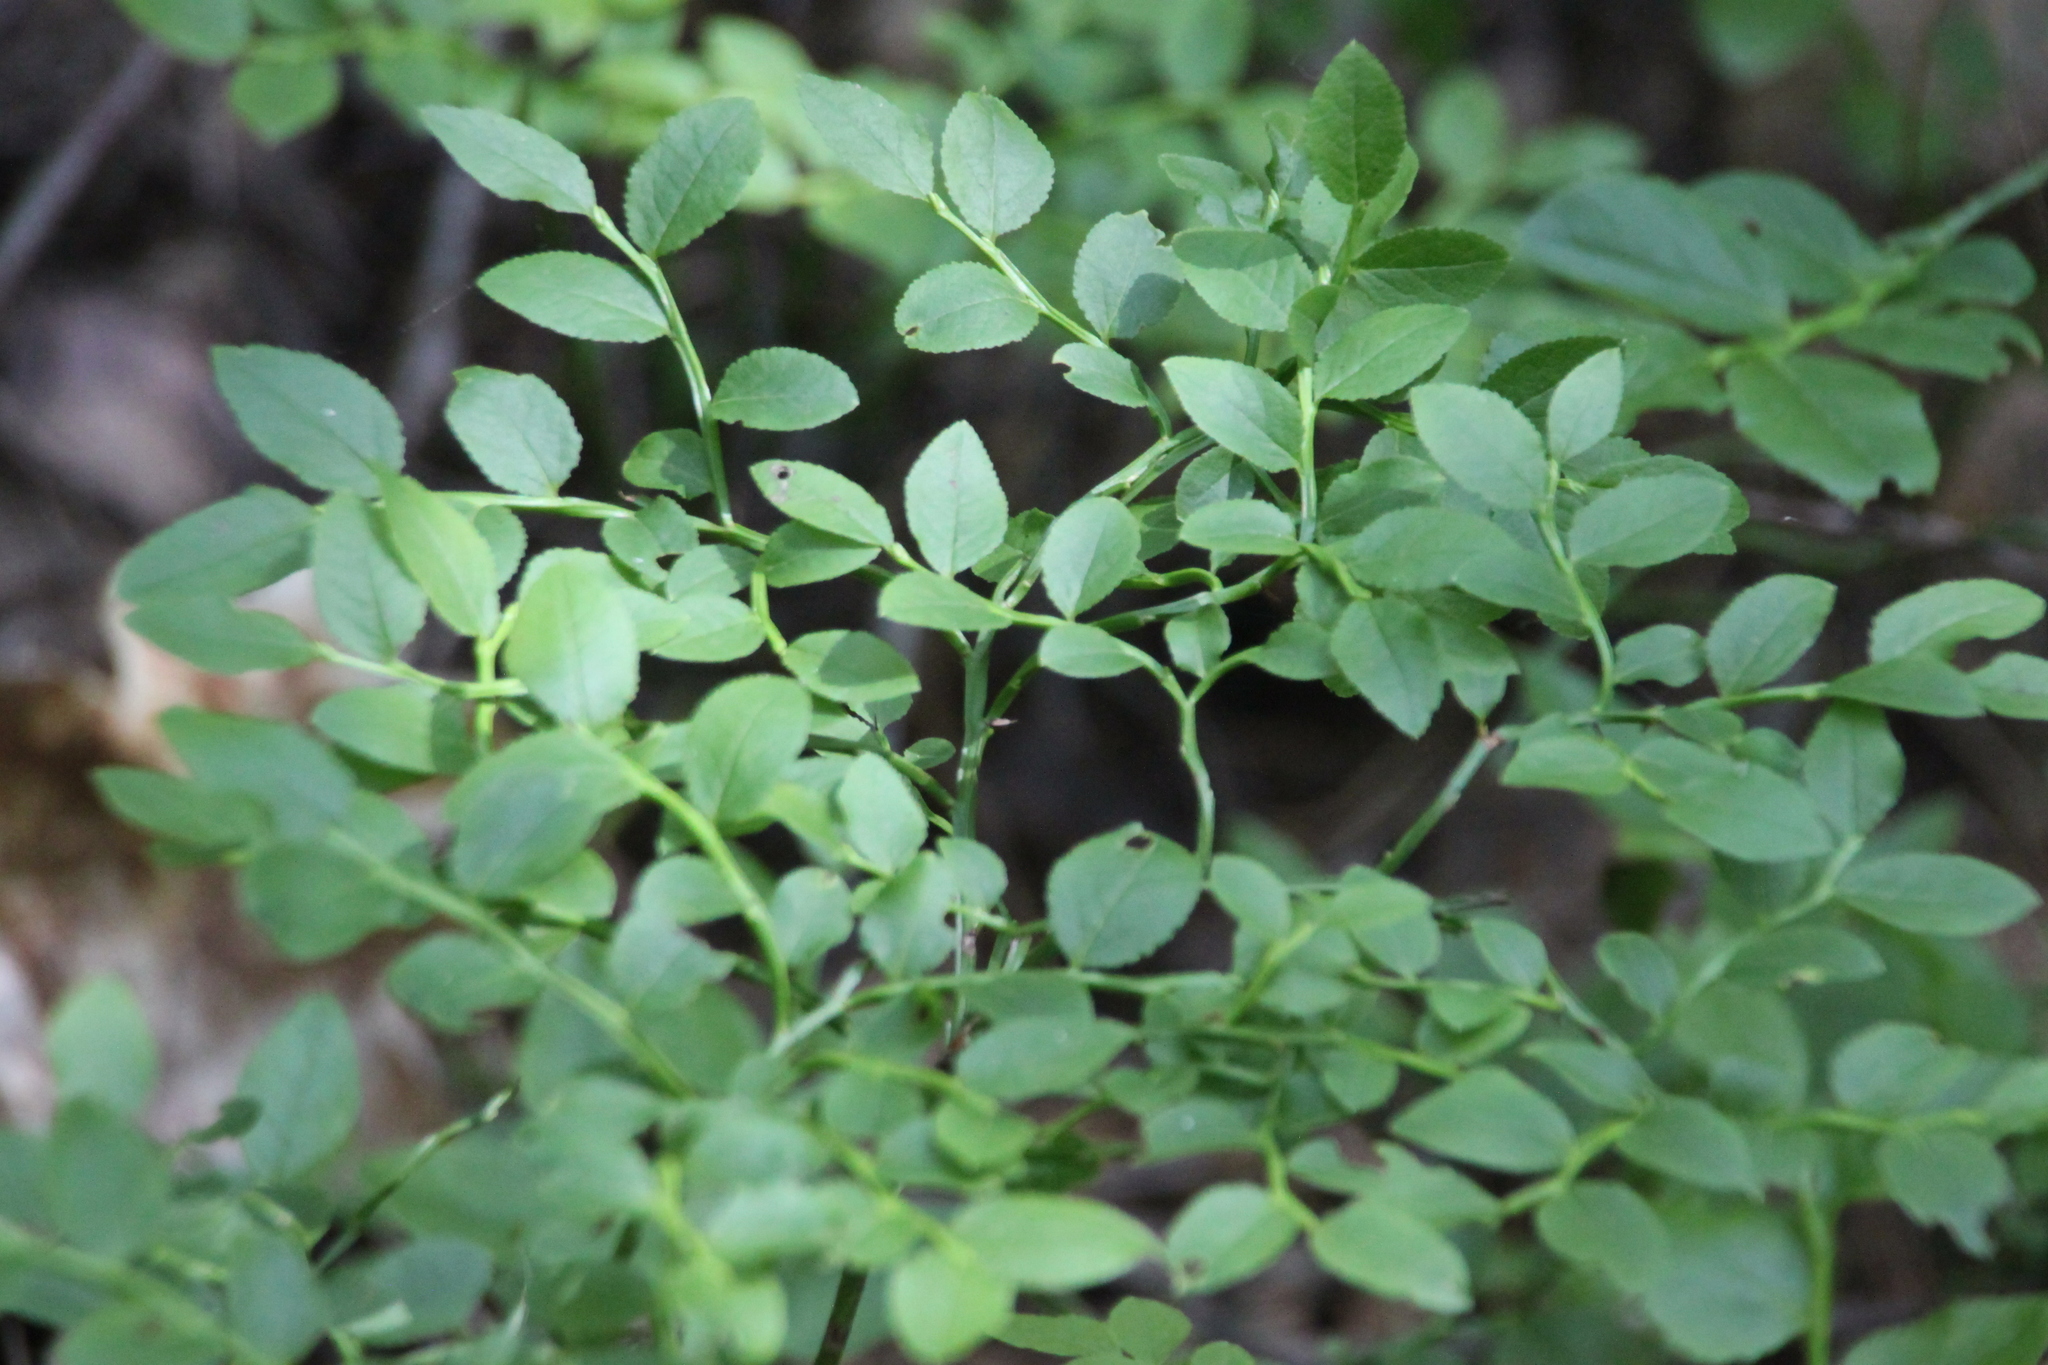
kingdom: Plantae
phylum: Tracheophyta
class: Magnoliopsida
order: Ericales
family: Ericaceae
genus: Vaccinium
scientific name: Vaccinium myrtillus
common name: Bilberry
